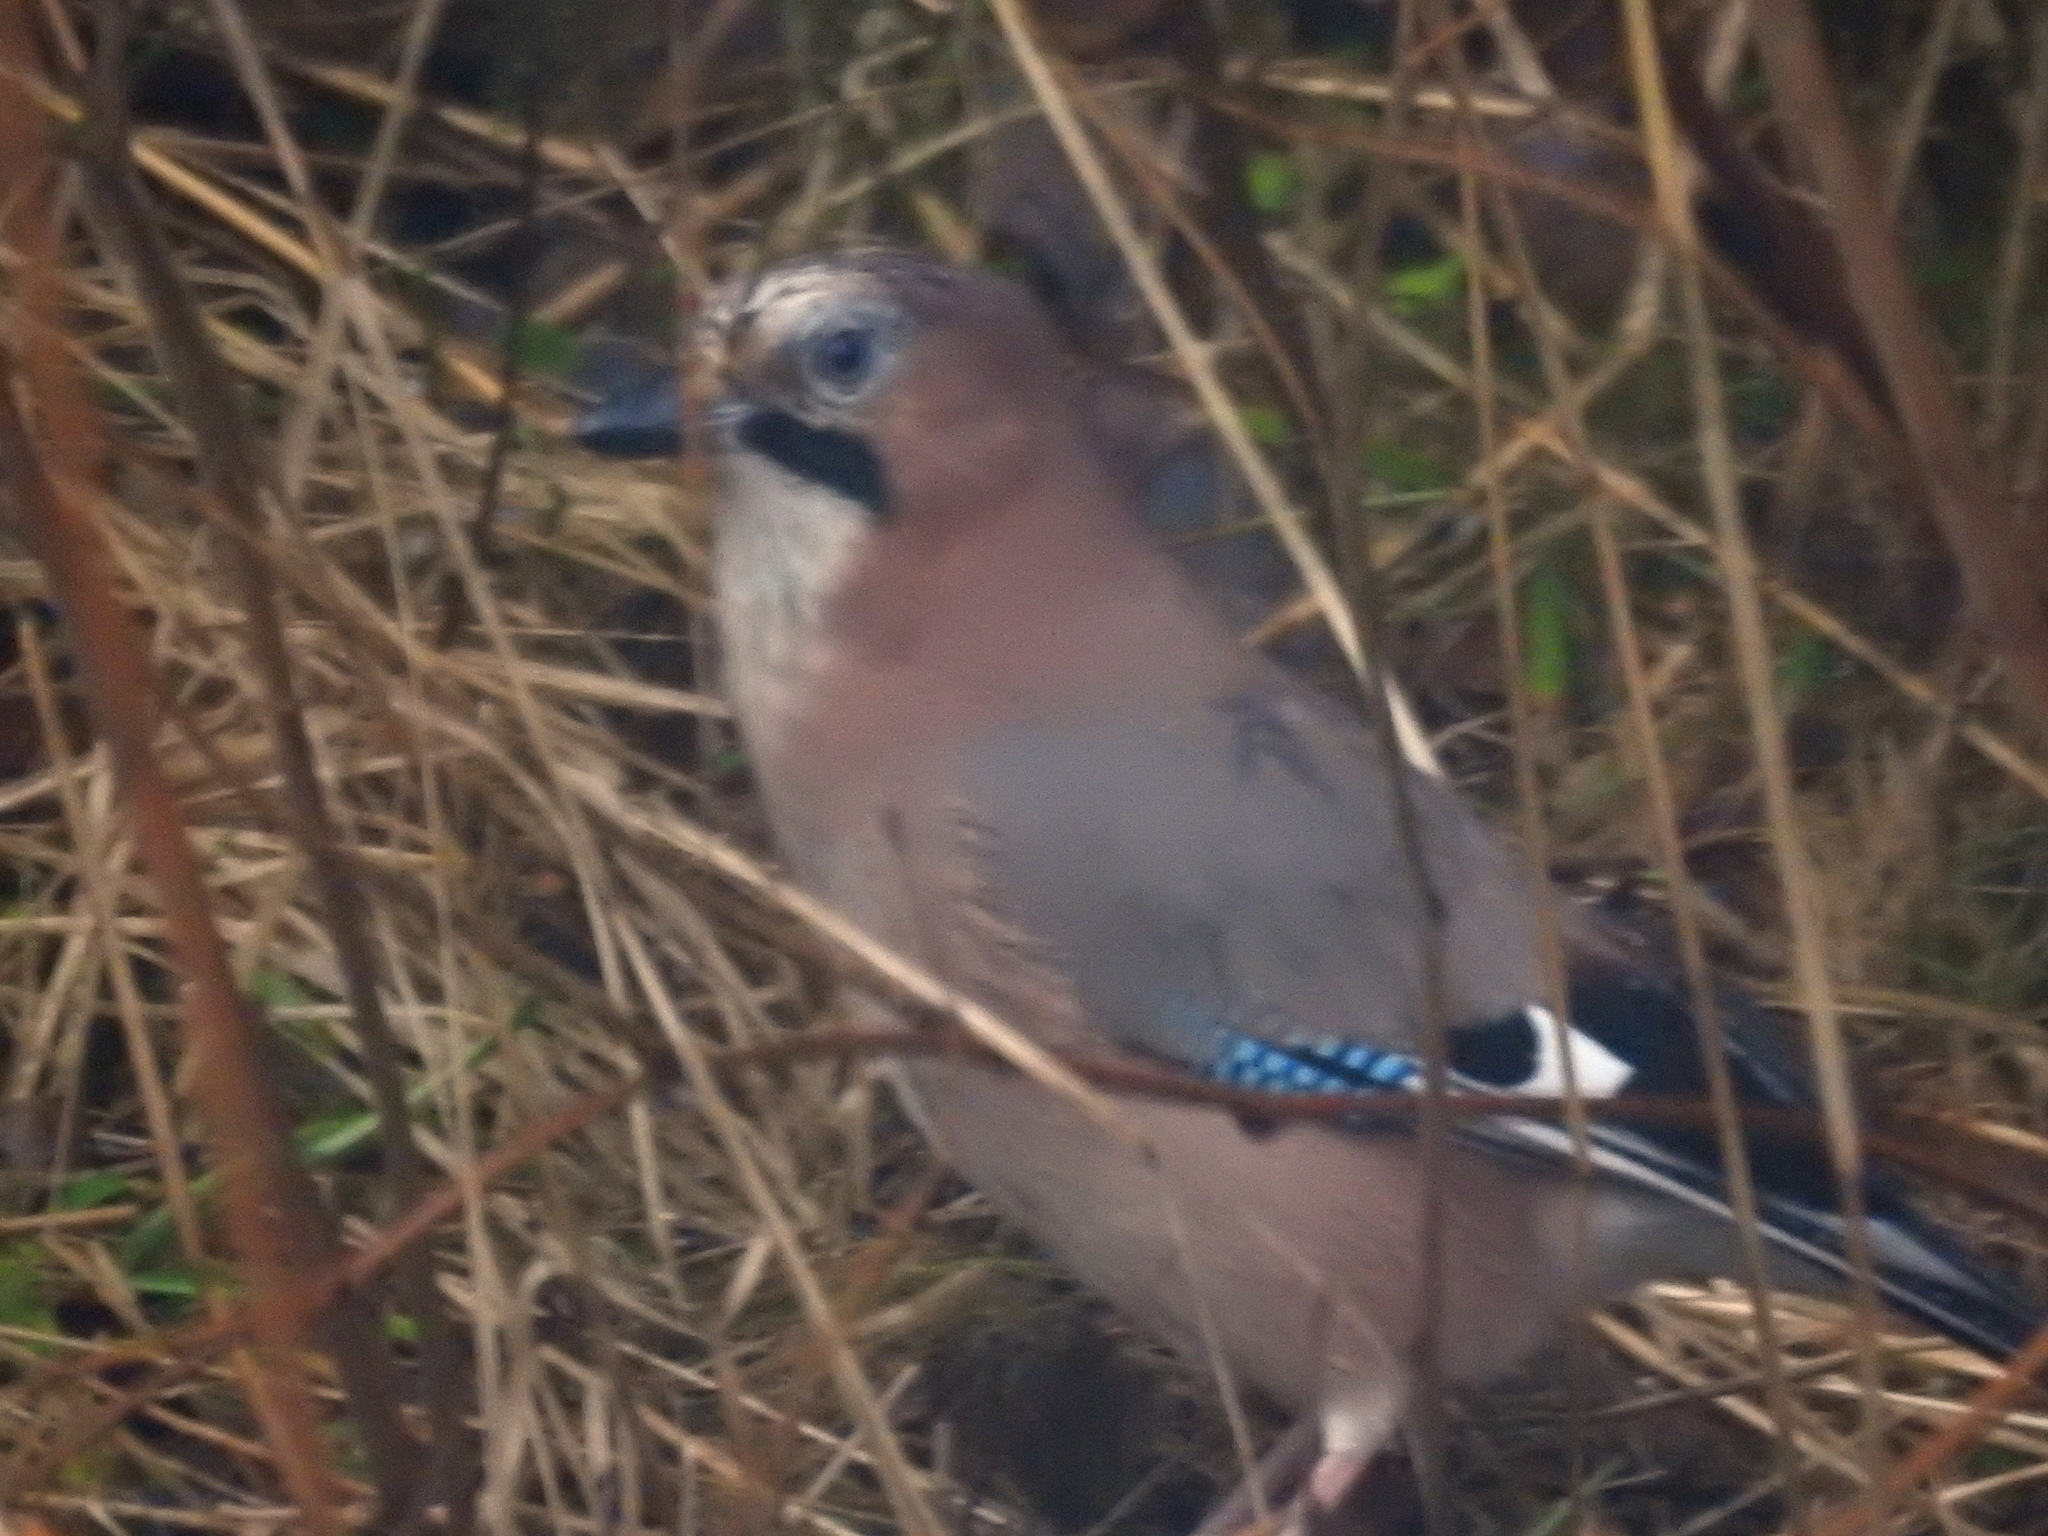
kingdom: Animalia
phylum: Chordata
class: Aves
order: Passeriformes
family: Corvidae
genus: Garrulus
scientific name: Garrulus glandarius
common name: Eurasian jay
